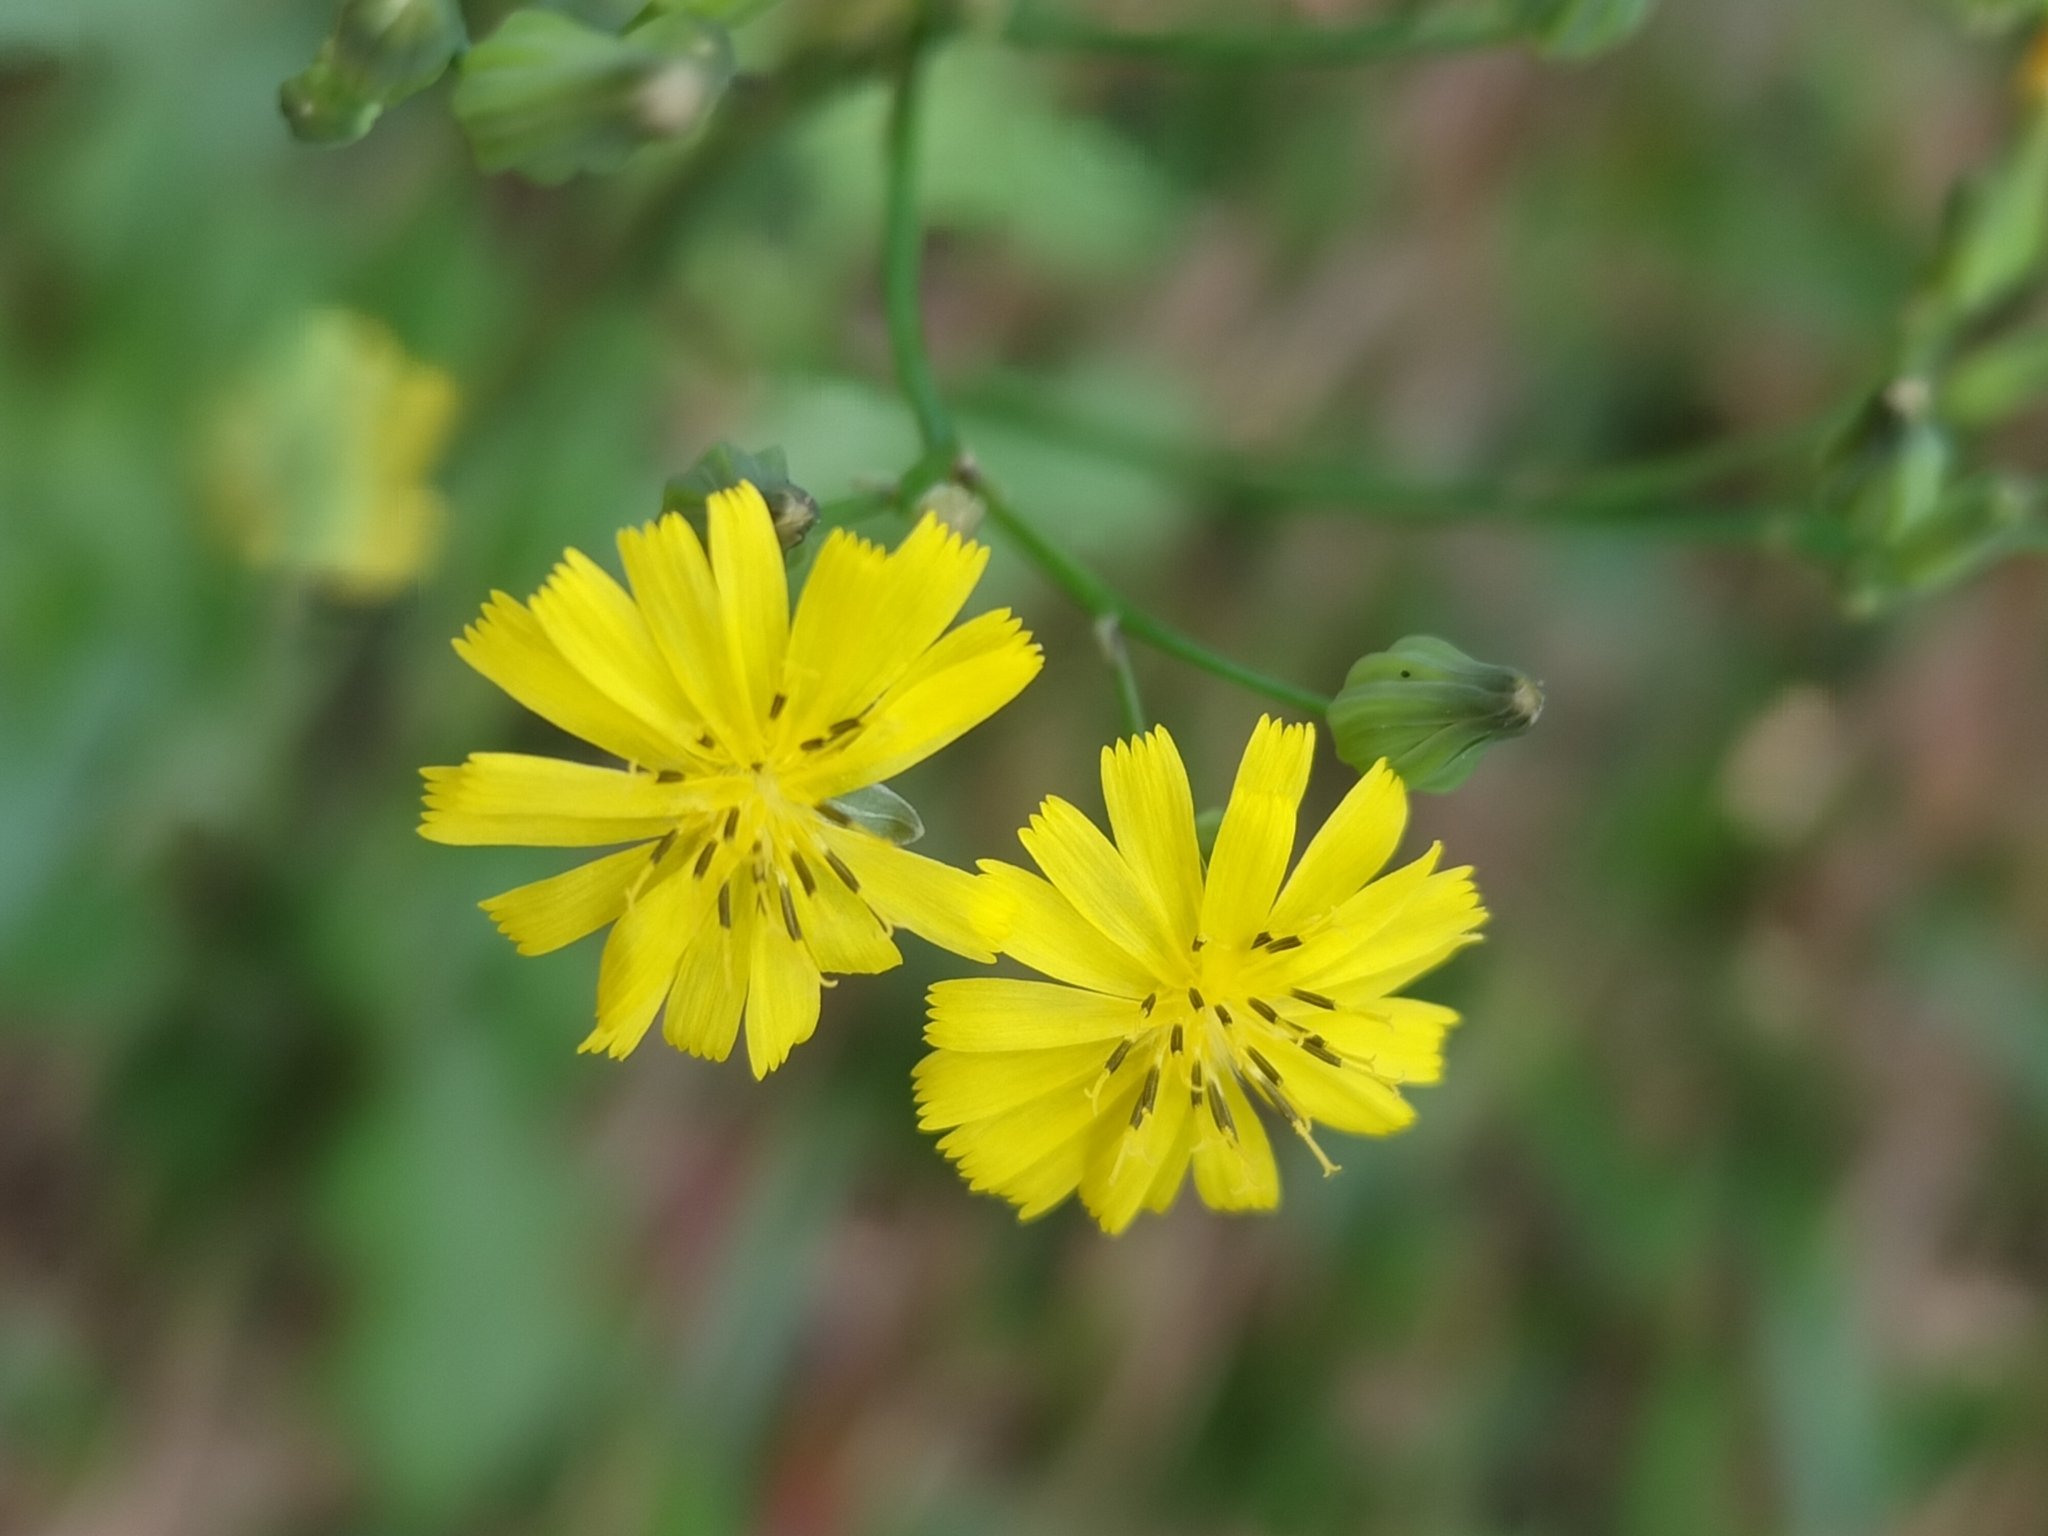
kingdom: Plantae
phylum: Tracheophyta
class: Magnoliopsida
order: Asterales
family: Asteraceae
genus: Youngia
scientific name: Youngia japonica
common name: Oriental false hawksbeard
